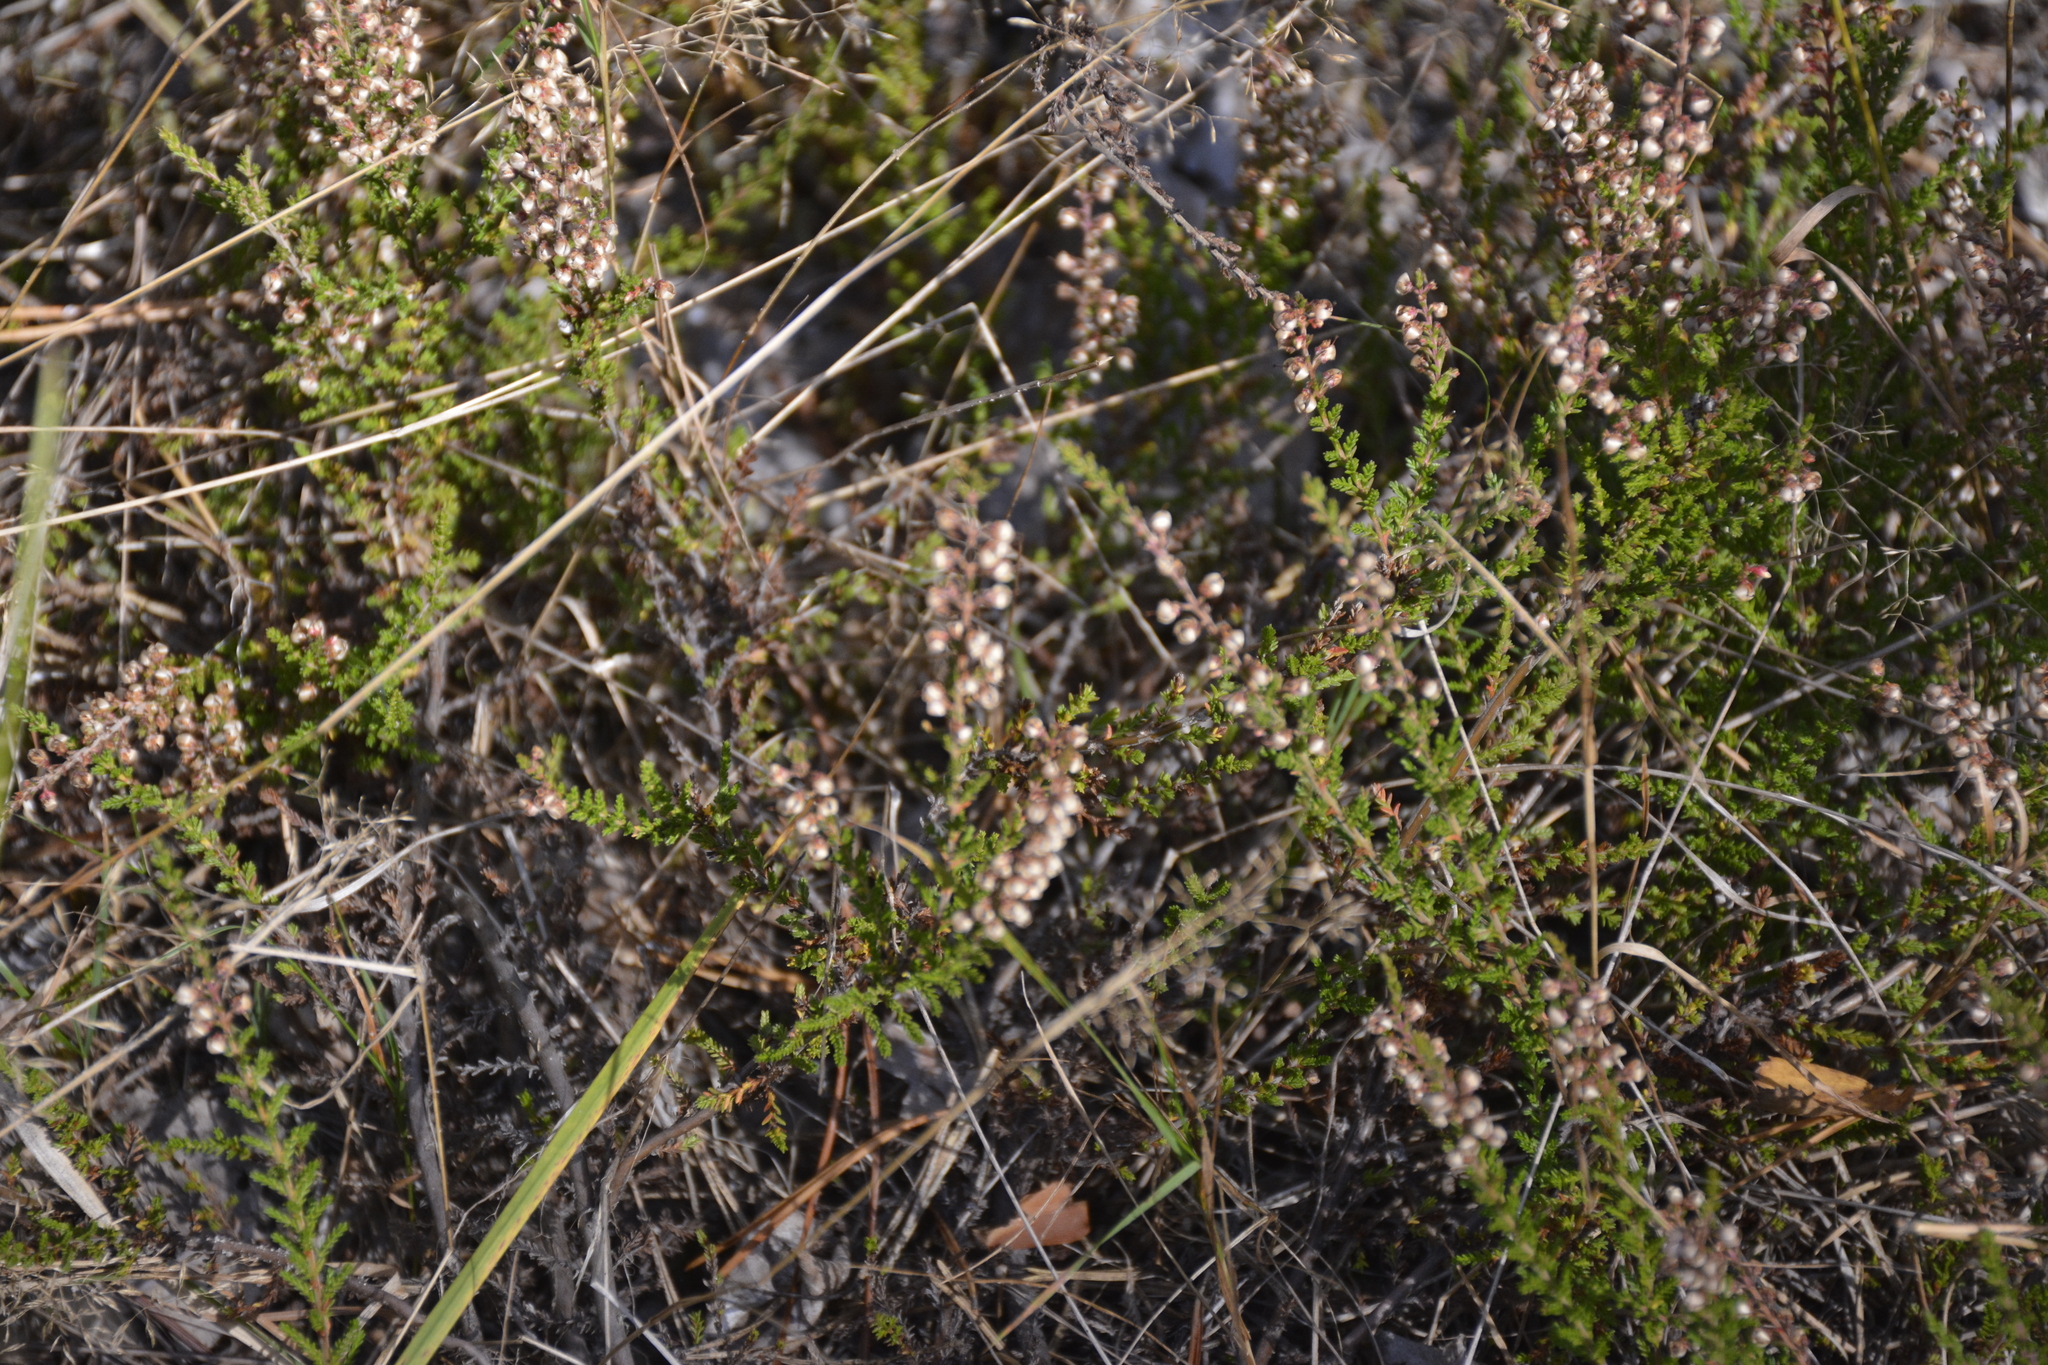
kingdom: Plantae
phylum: Tracheophyta
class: Magnoliopsida
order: Ericales
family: Ericaceae
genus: Calluna
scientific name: Calluna vulgaris
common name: Heather
